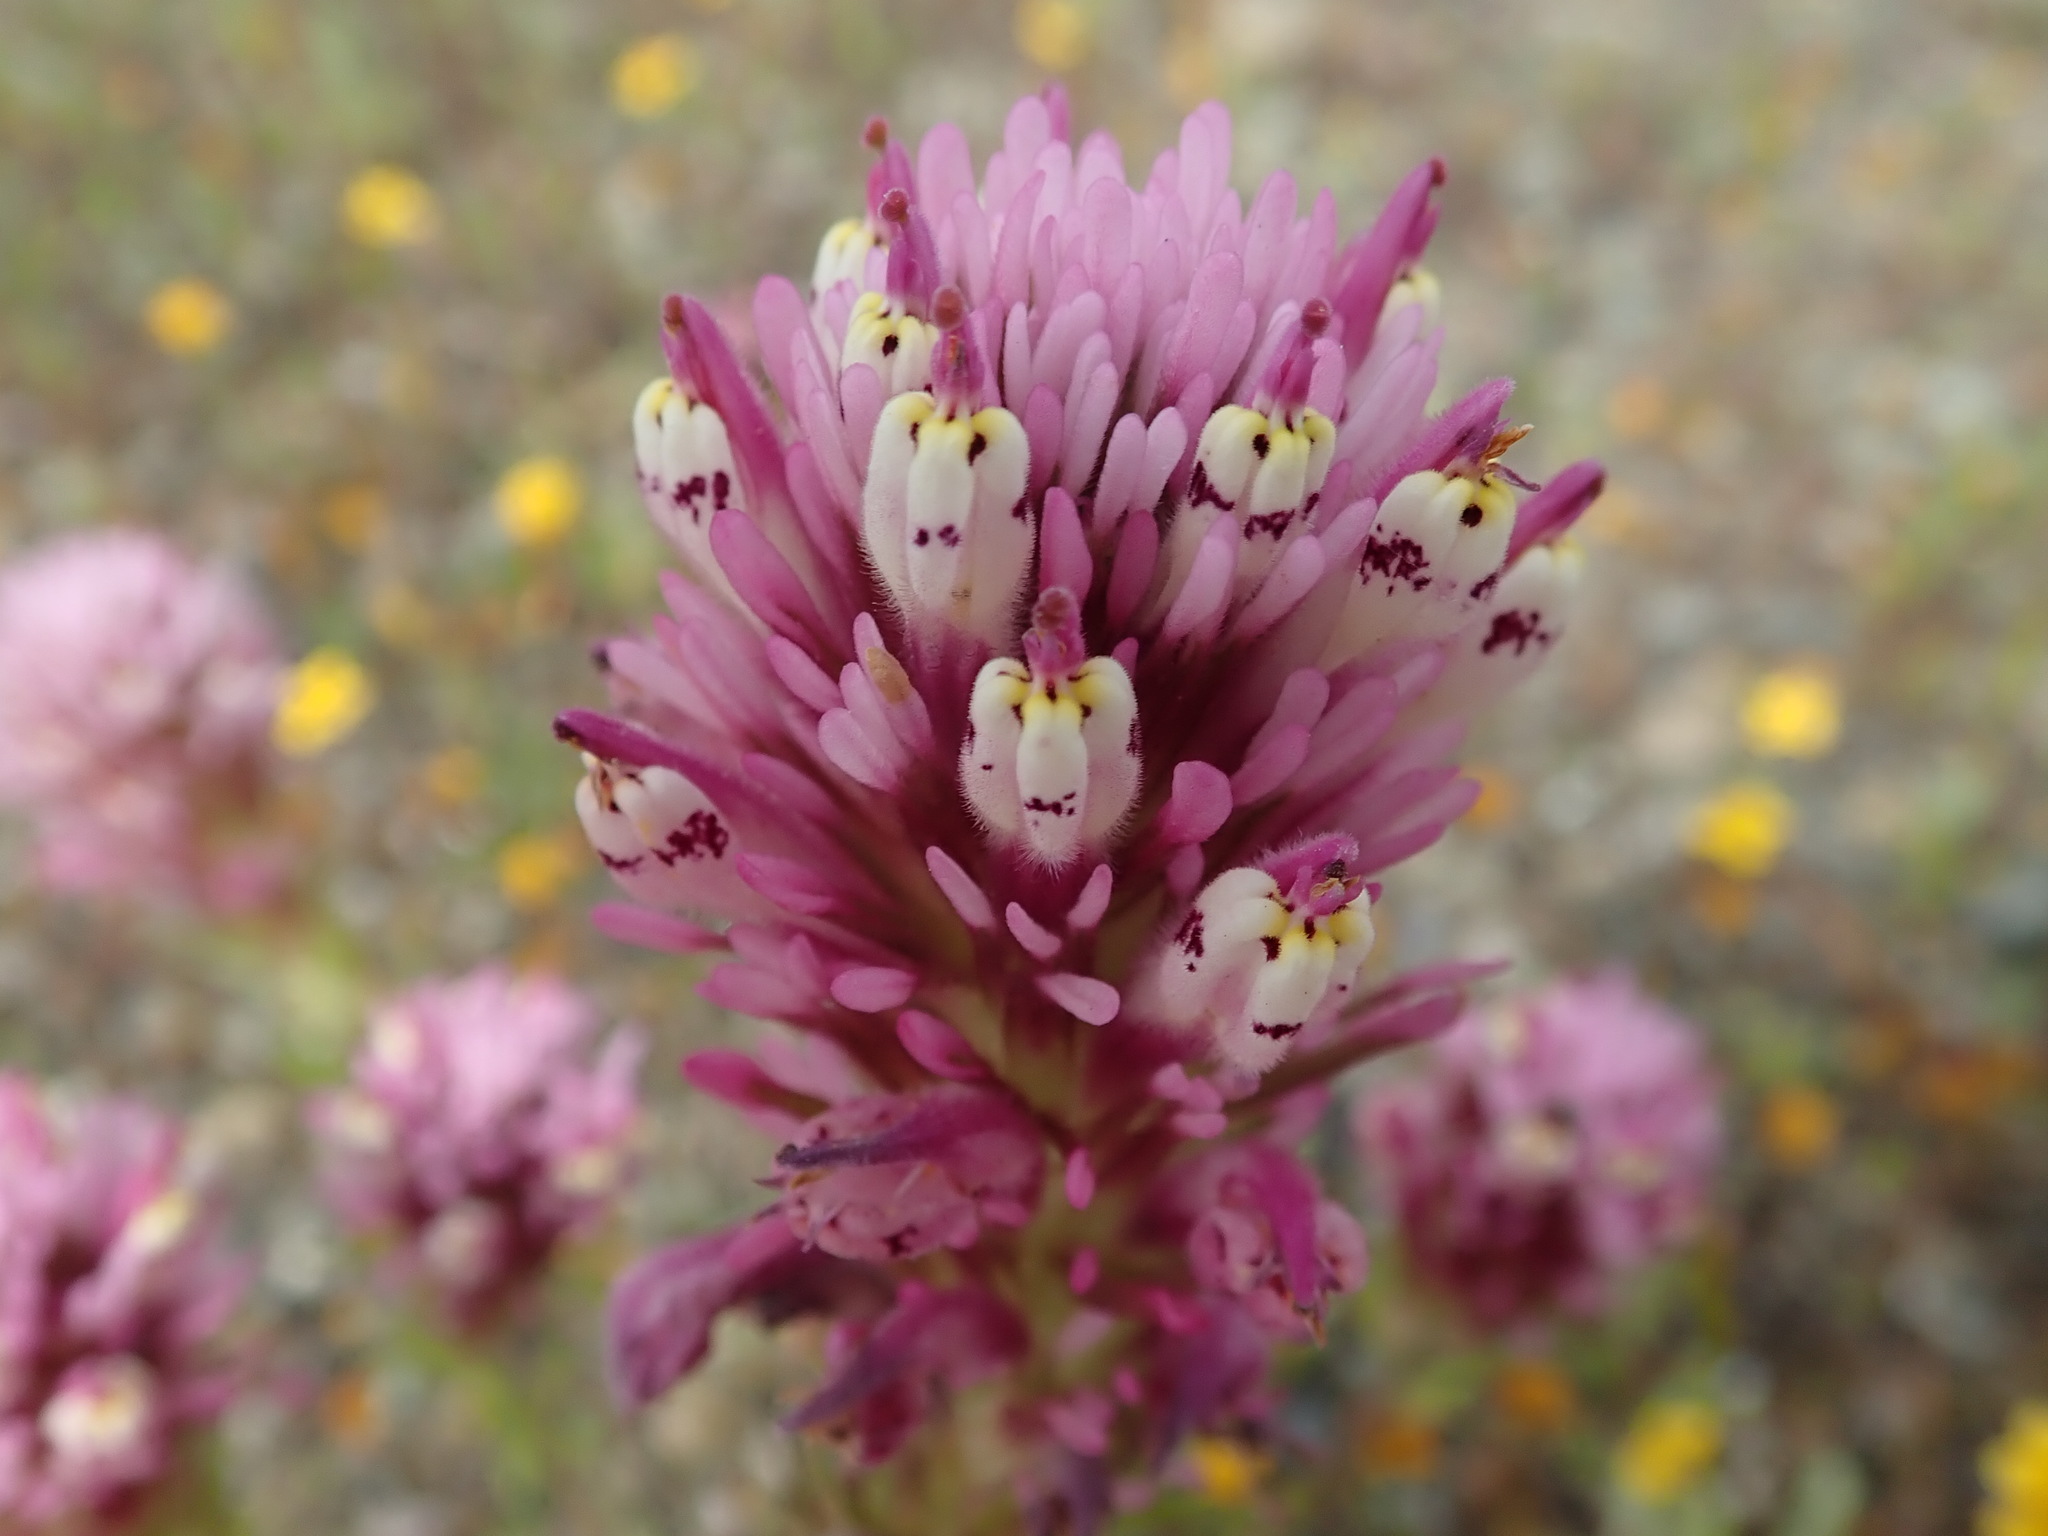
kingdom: Plantae
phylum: Tracheophyta
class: Magnoliopsida
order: Lamiales
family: Orobanchaceae
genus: Castilleja
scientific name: Castilleja densiflora
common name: Dense-flower indian paintbrush
